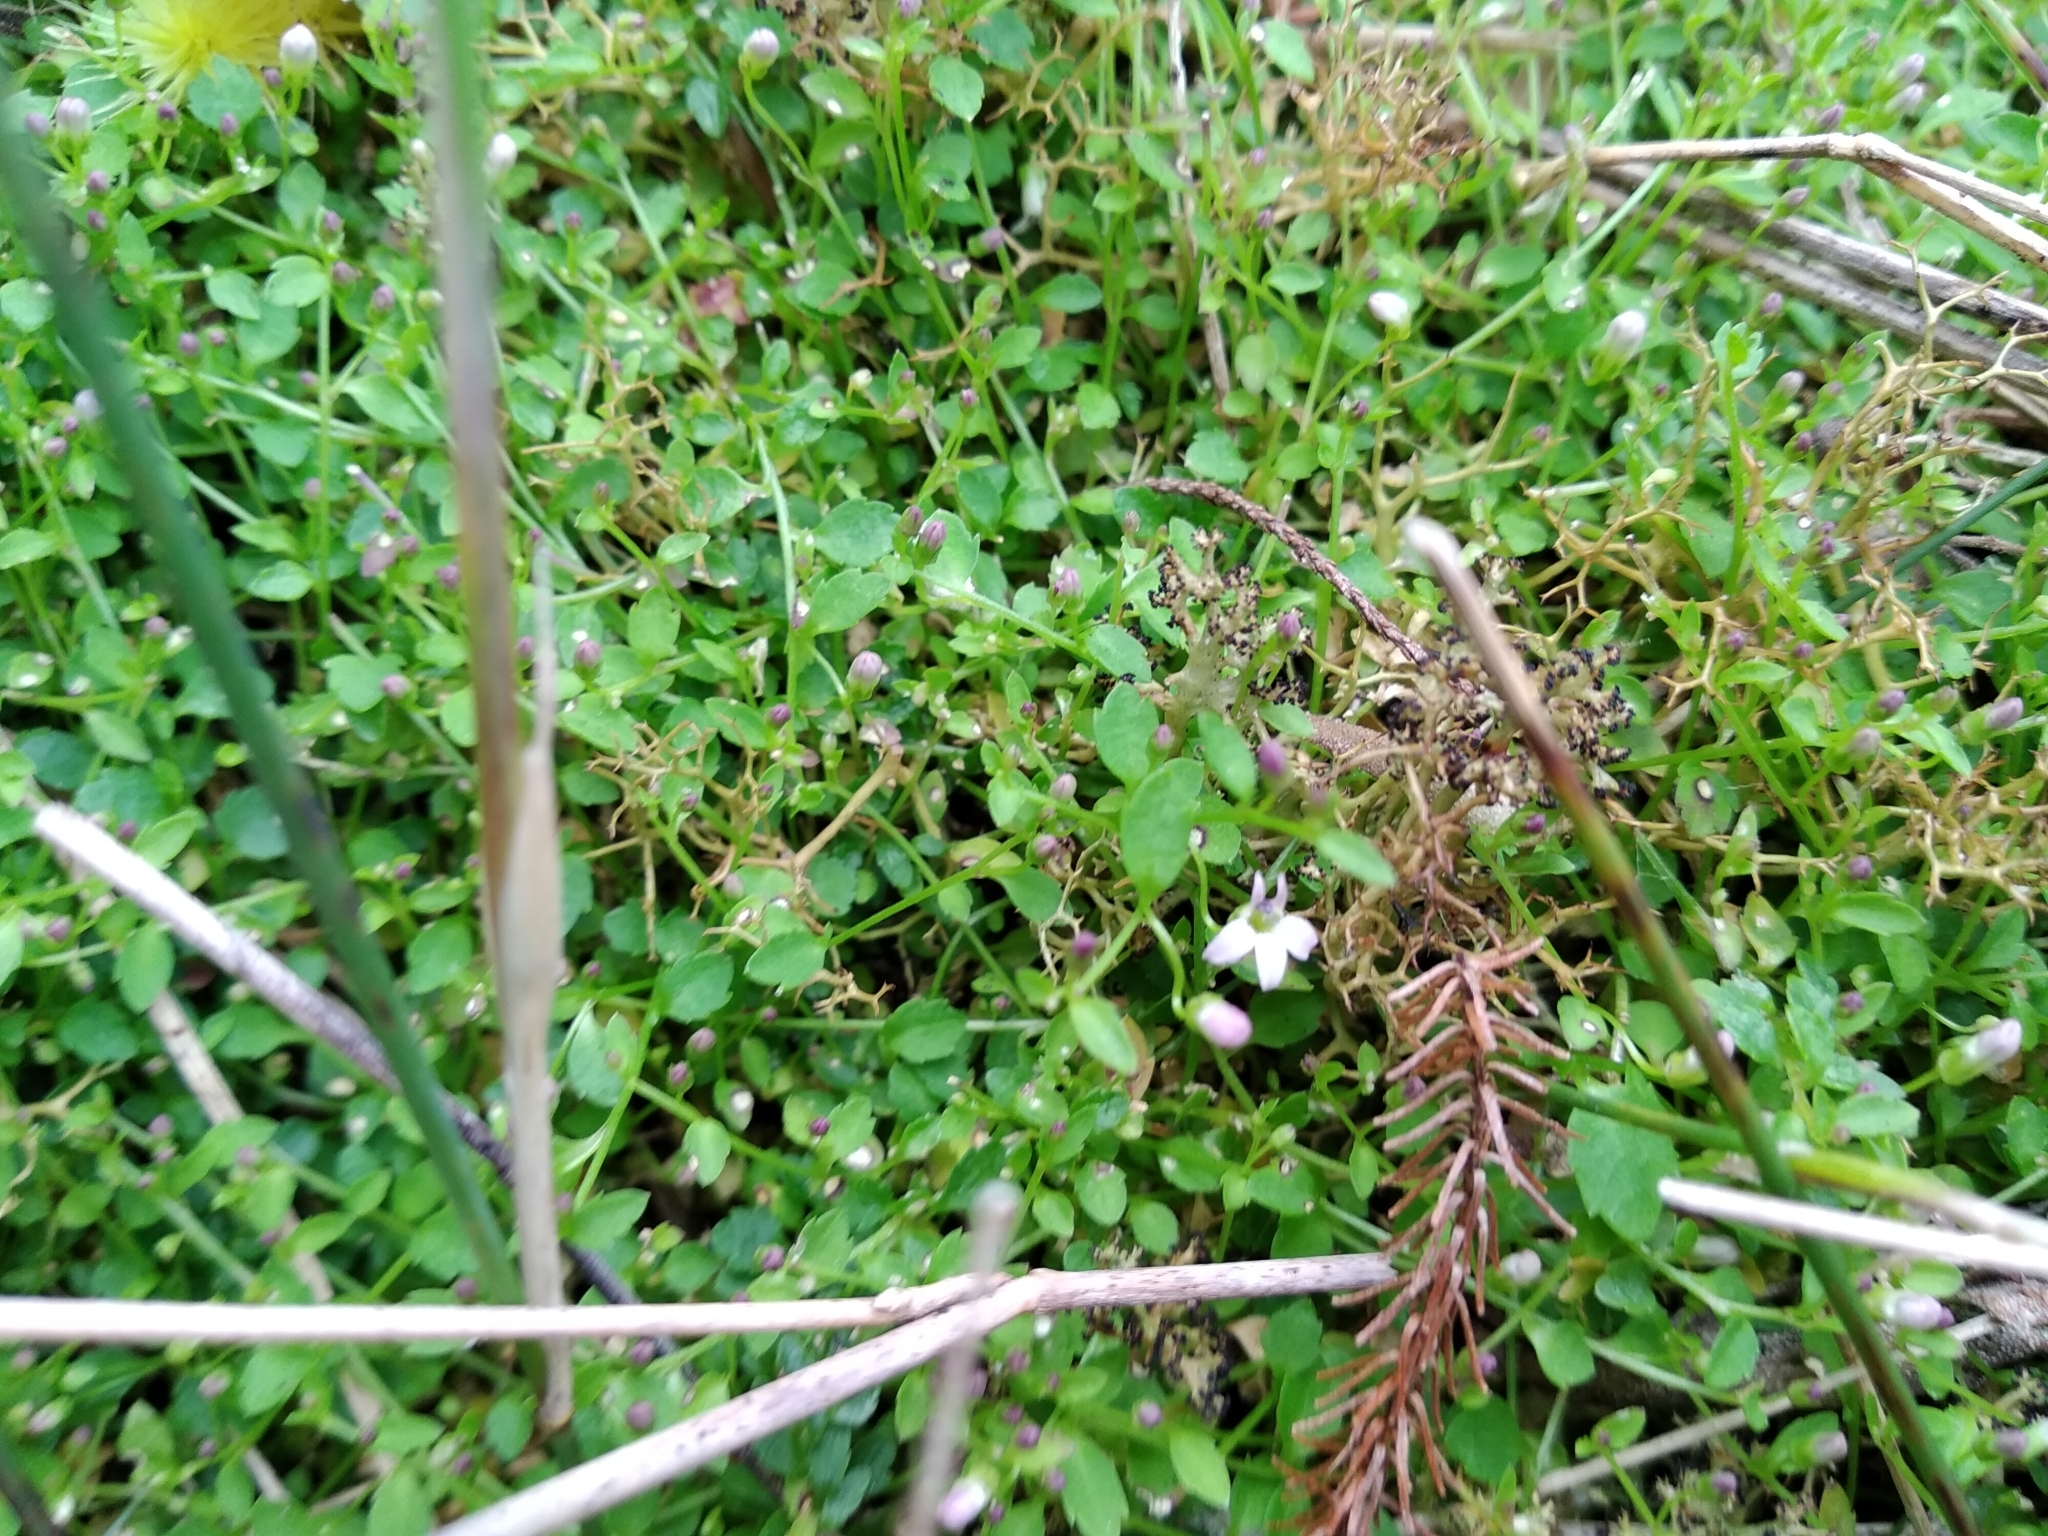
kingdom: Plantae
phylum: Tracheophyta
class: Magnoliopsida
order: Asterales
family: Campanulaceae
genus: Unigenes
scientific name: Unigenes humifusa
